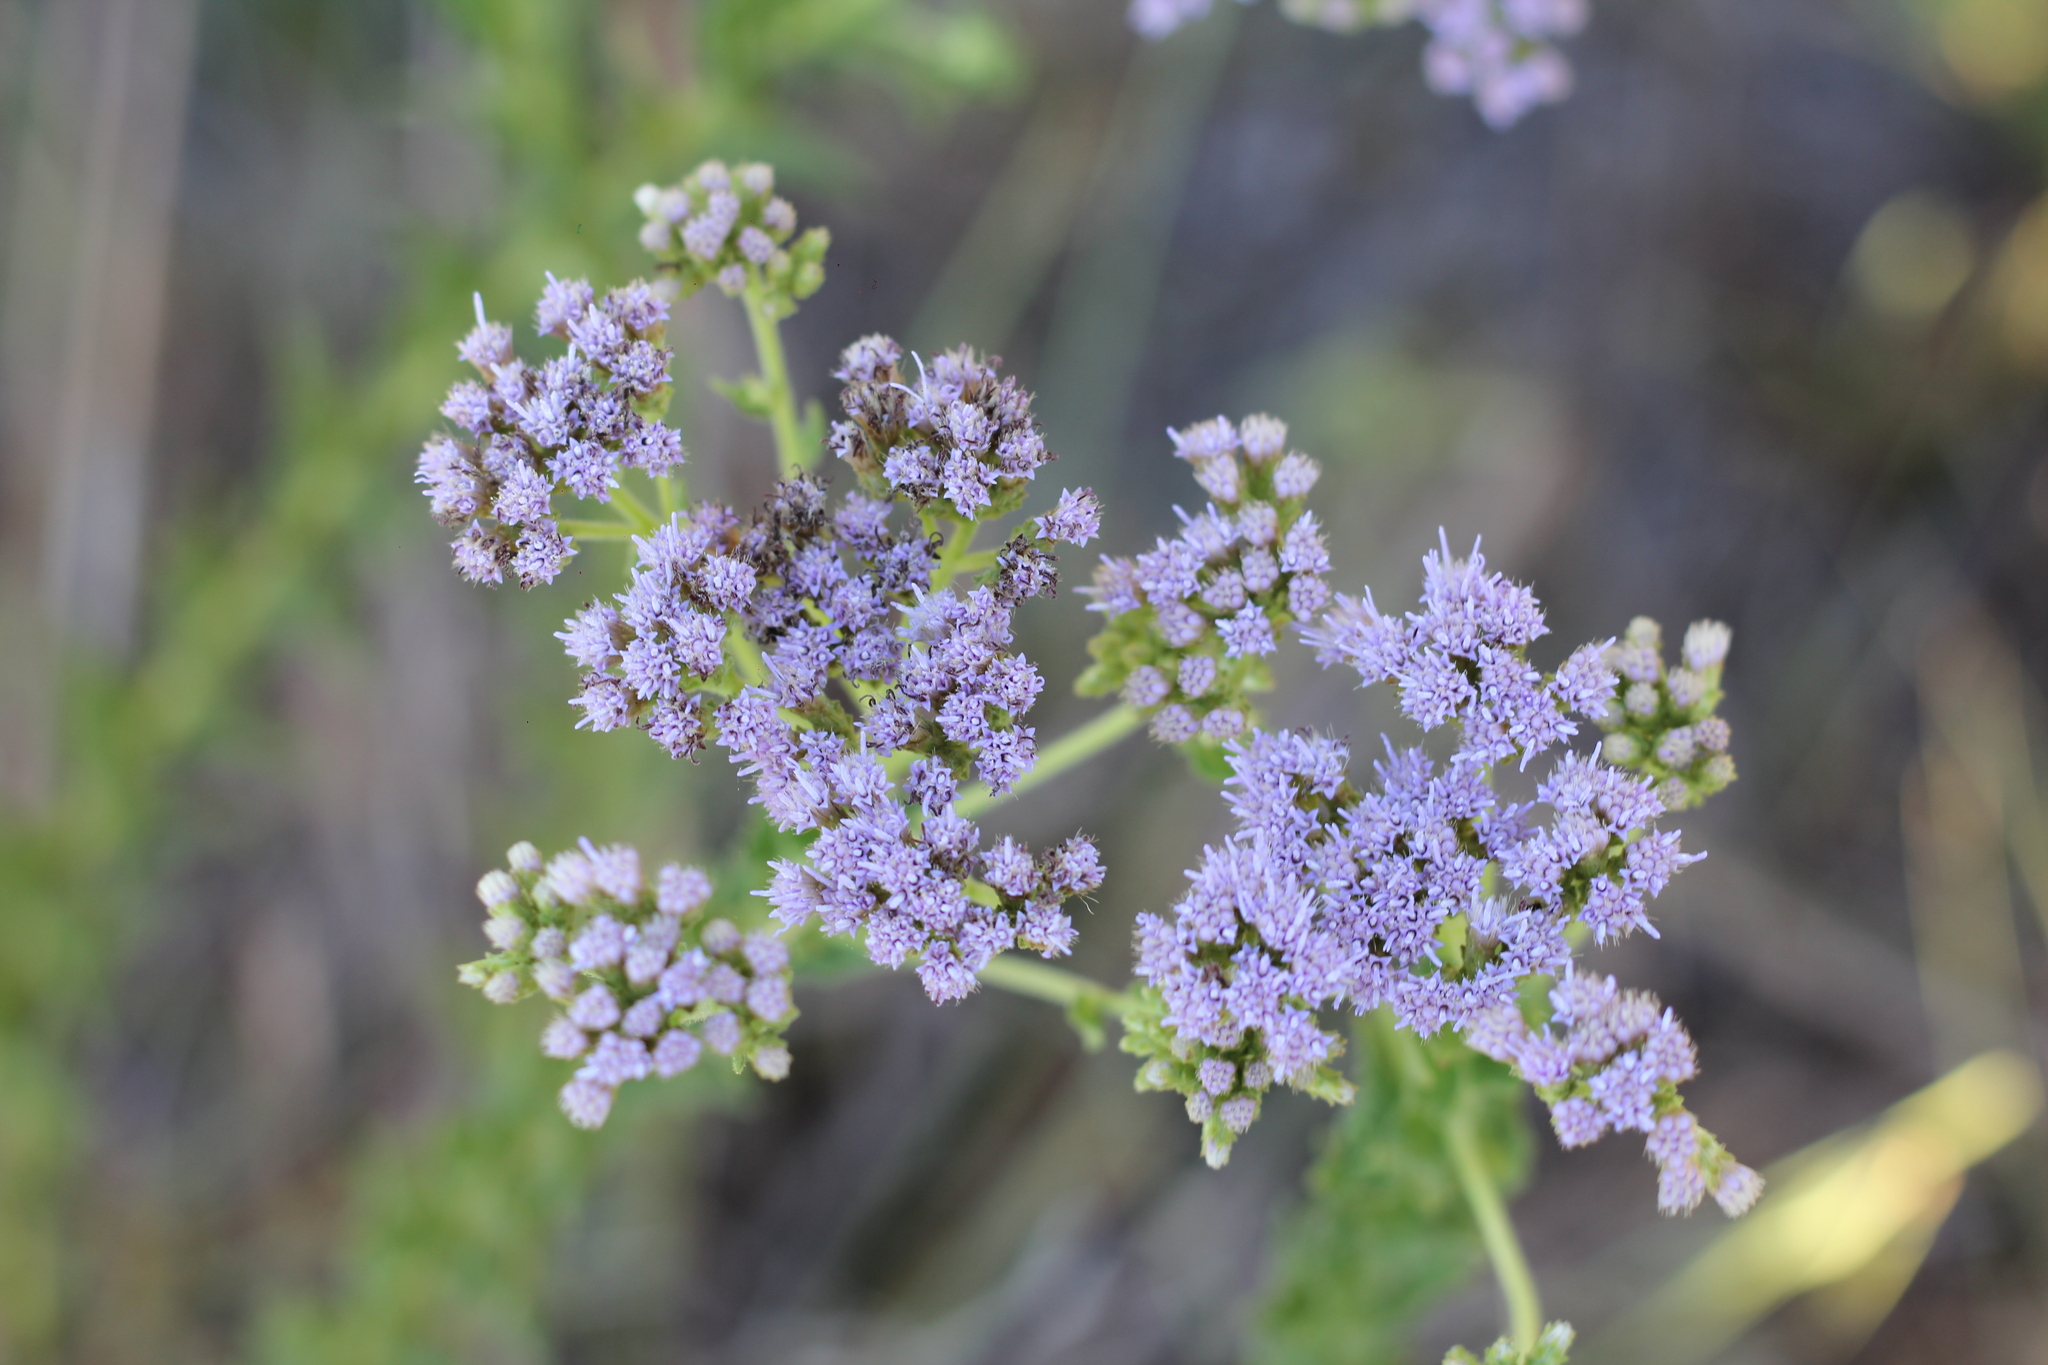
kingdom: Plantae
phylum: Tracheophyta
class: Magnoliopsida
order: Asterales
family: Asteraceae
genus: Chromolaena
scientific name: Chromolaena hirsuta
